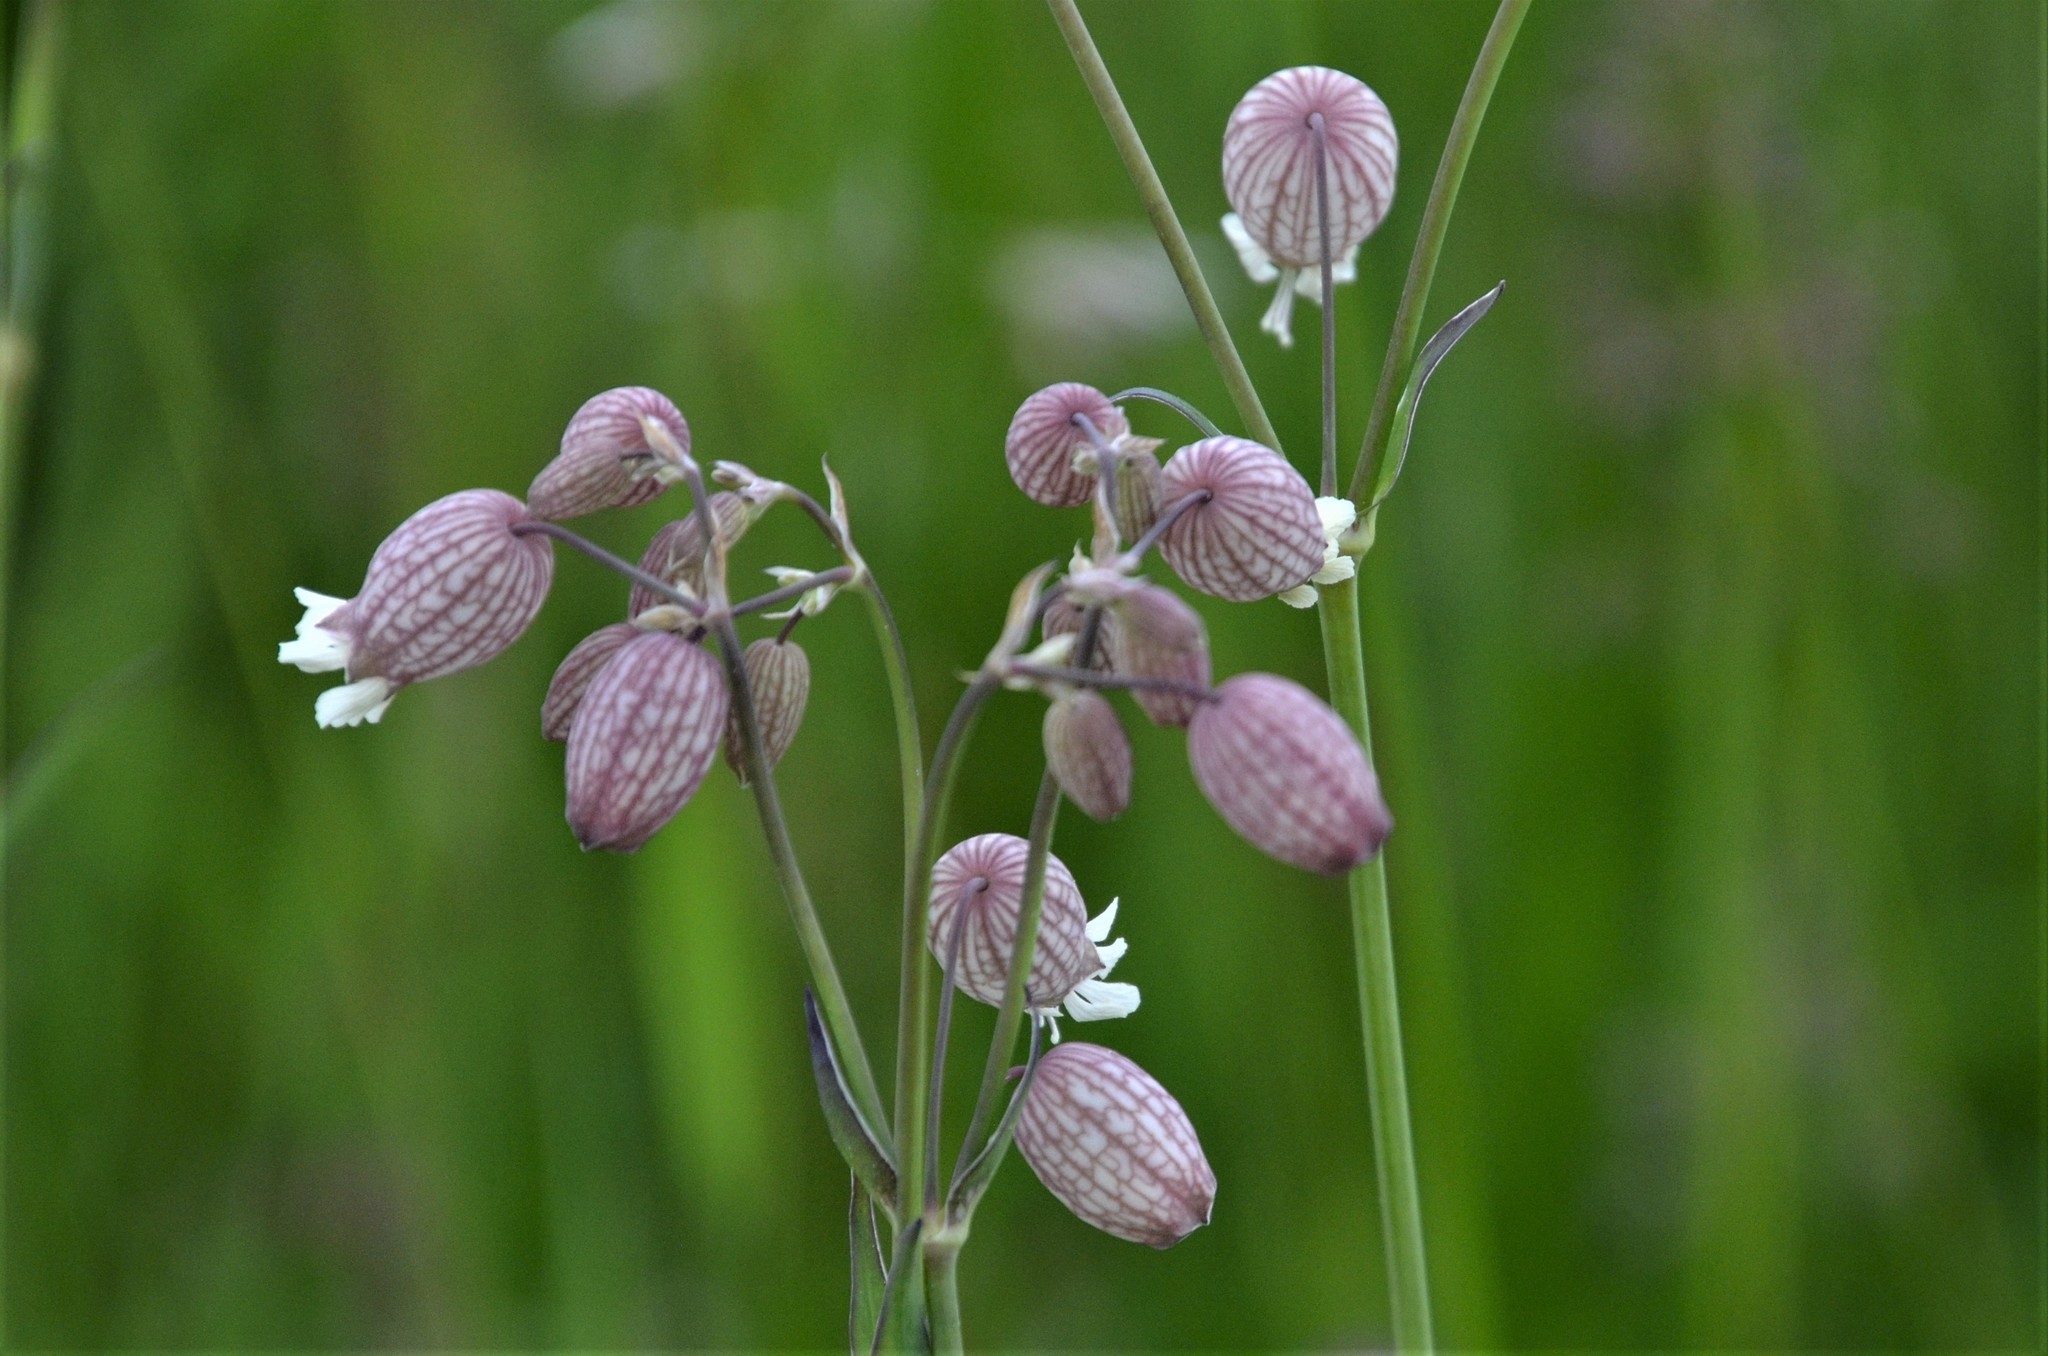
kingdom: Plantae
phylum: Tracheophyta
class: Magnoliopsida
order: Caryophyllales
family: Caryophyllaceae
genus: Silene
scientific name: Silene vulgaris
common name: Bladder campion
